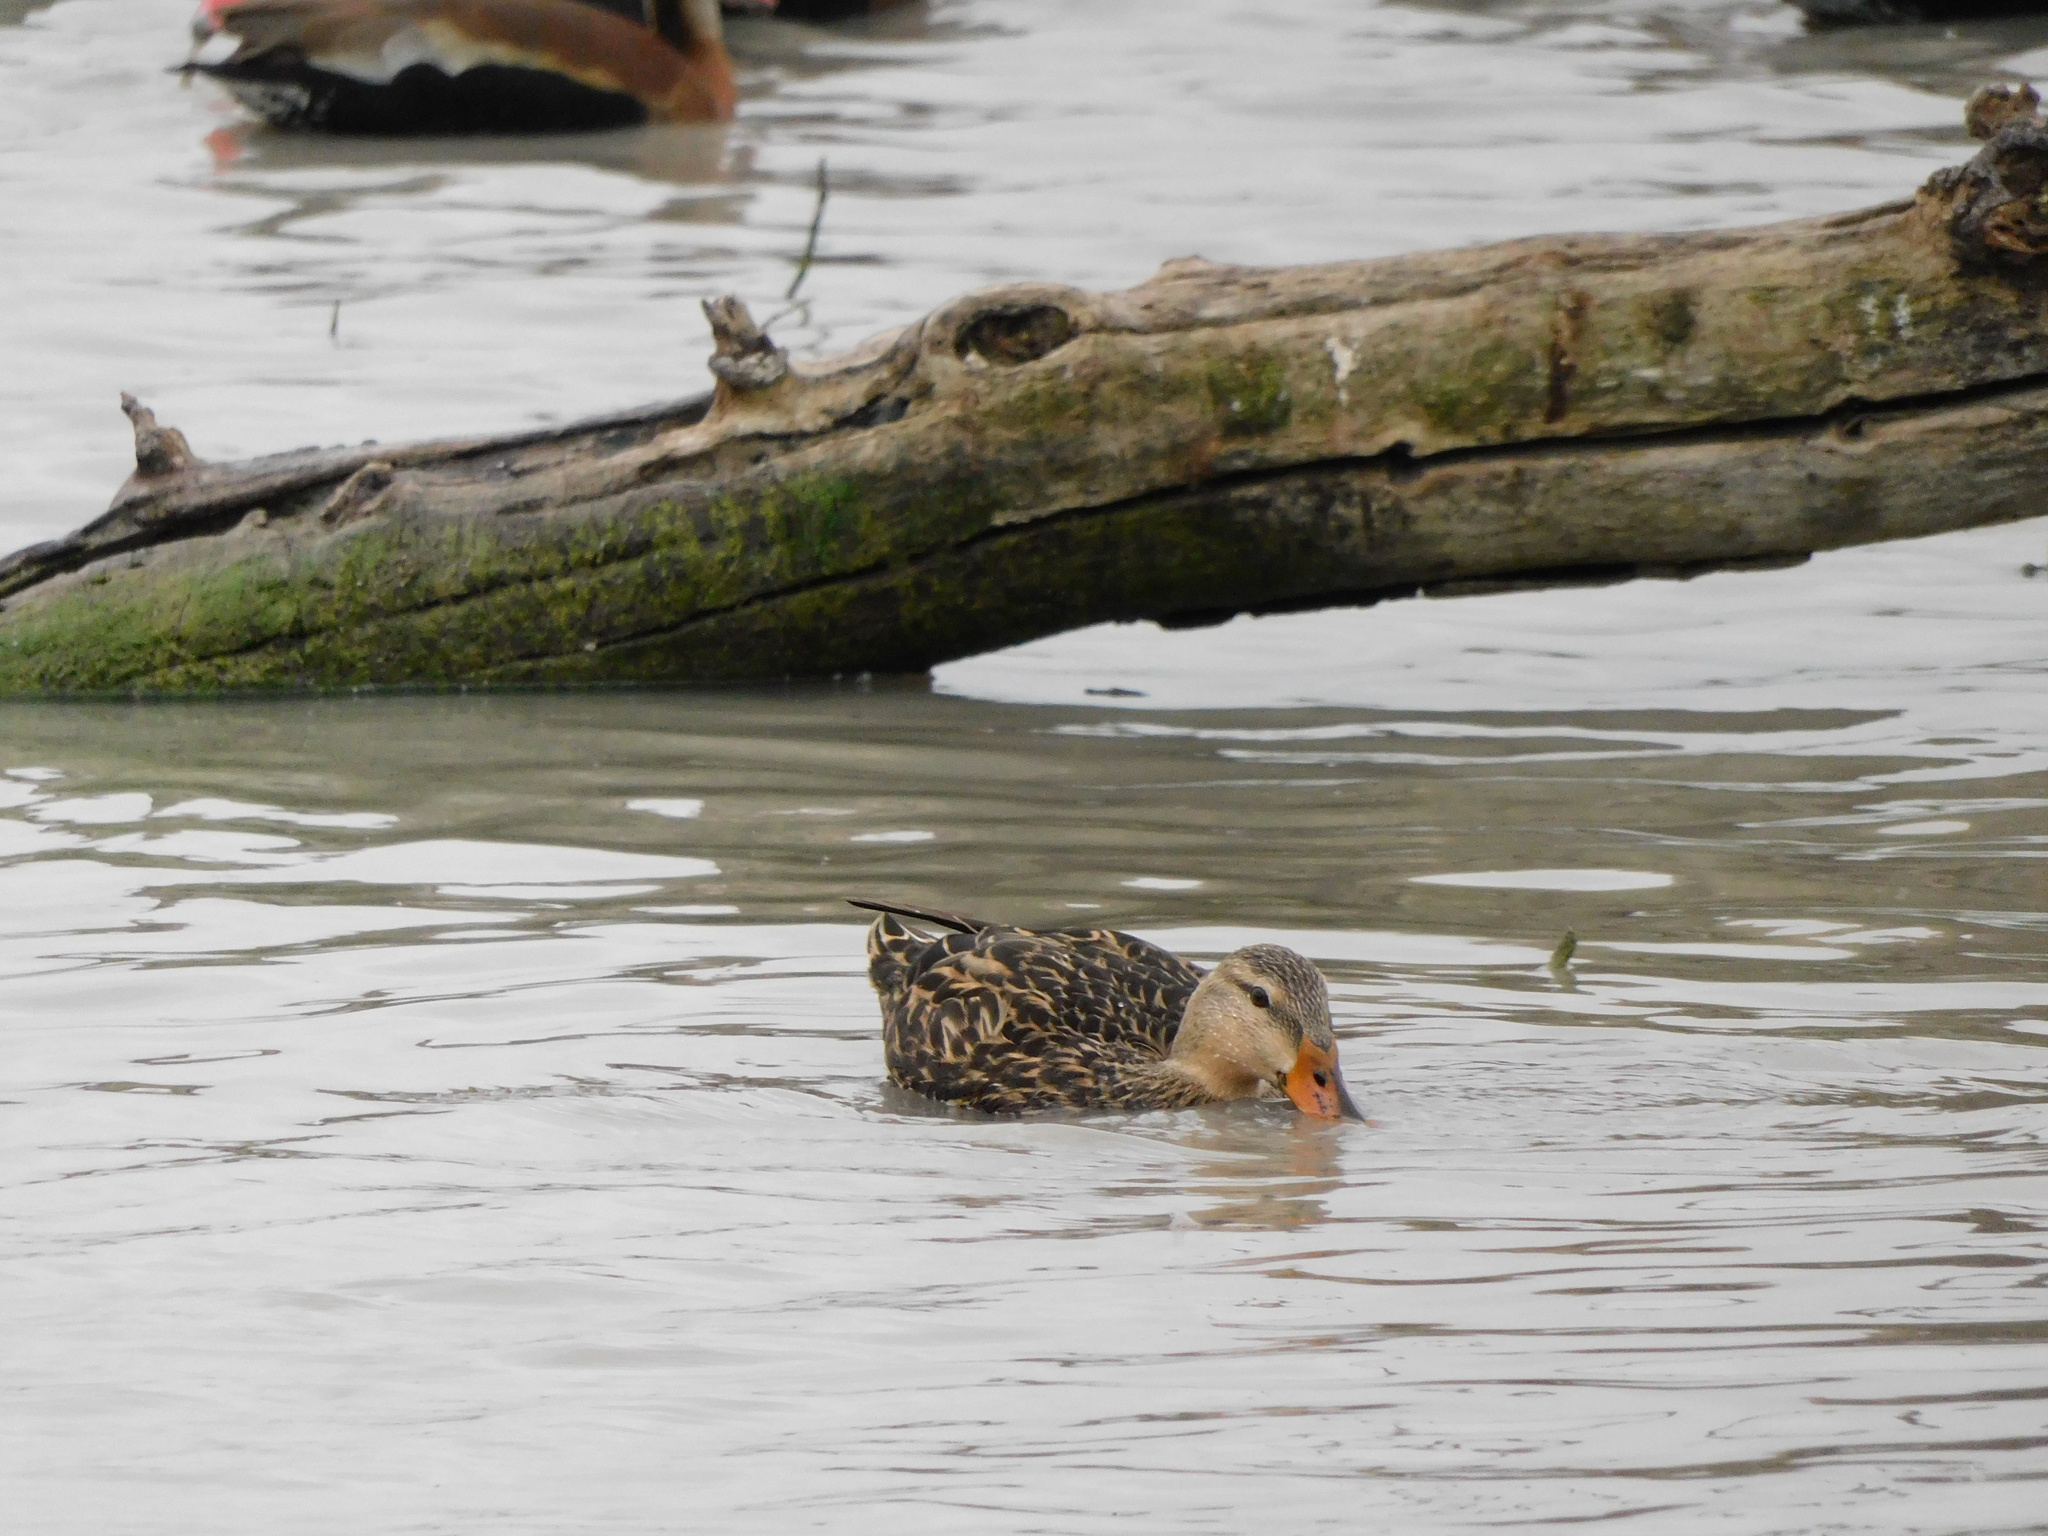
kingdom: Animalia
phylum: Chordata
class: Aves
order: Anseriformes
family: Anatidae
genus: Anas
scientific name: Anas fulvigula
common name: Mottled duck
